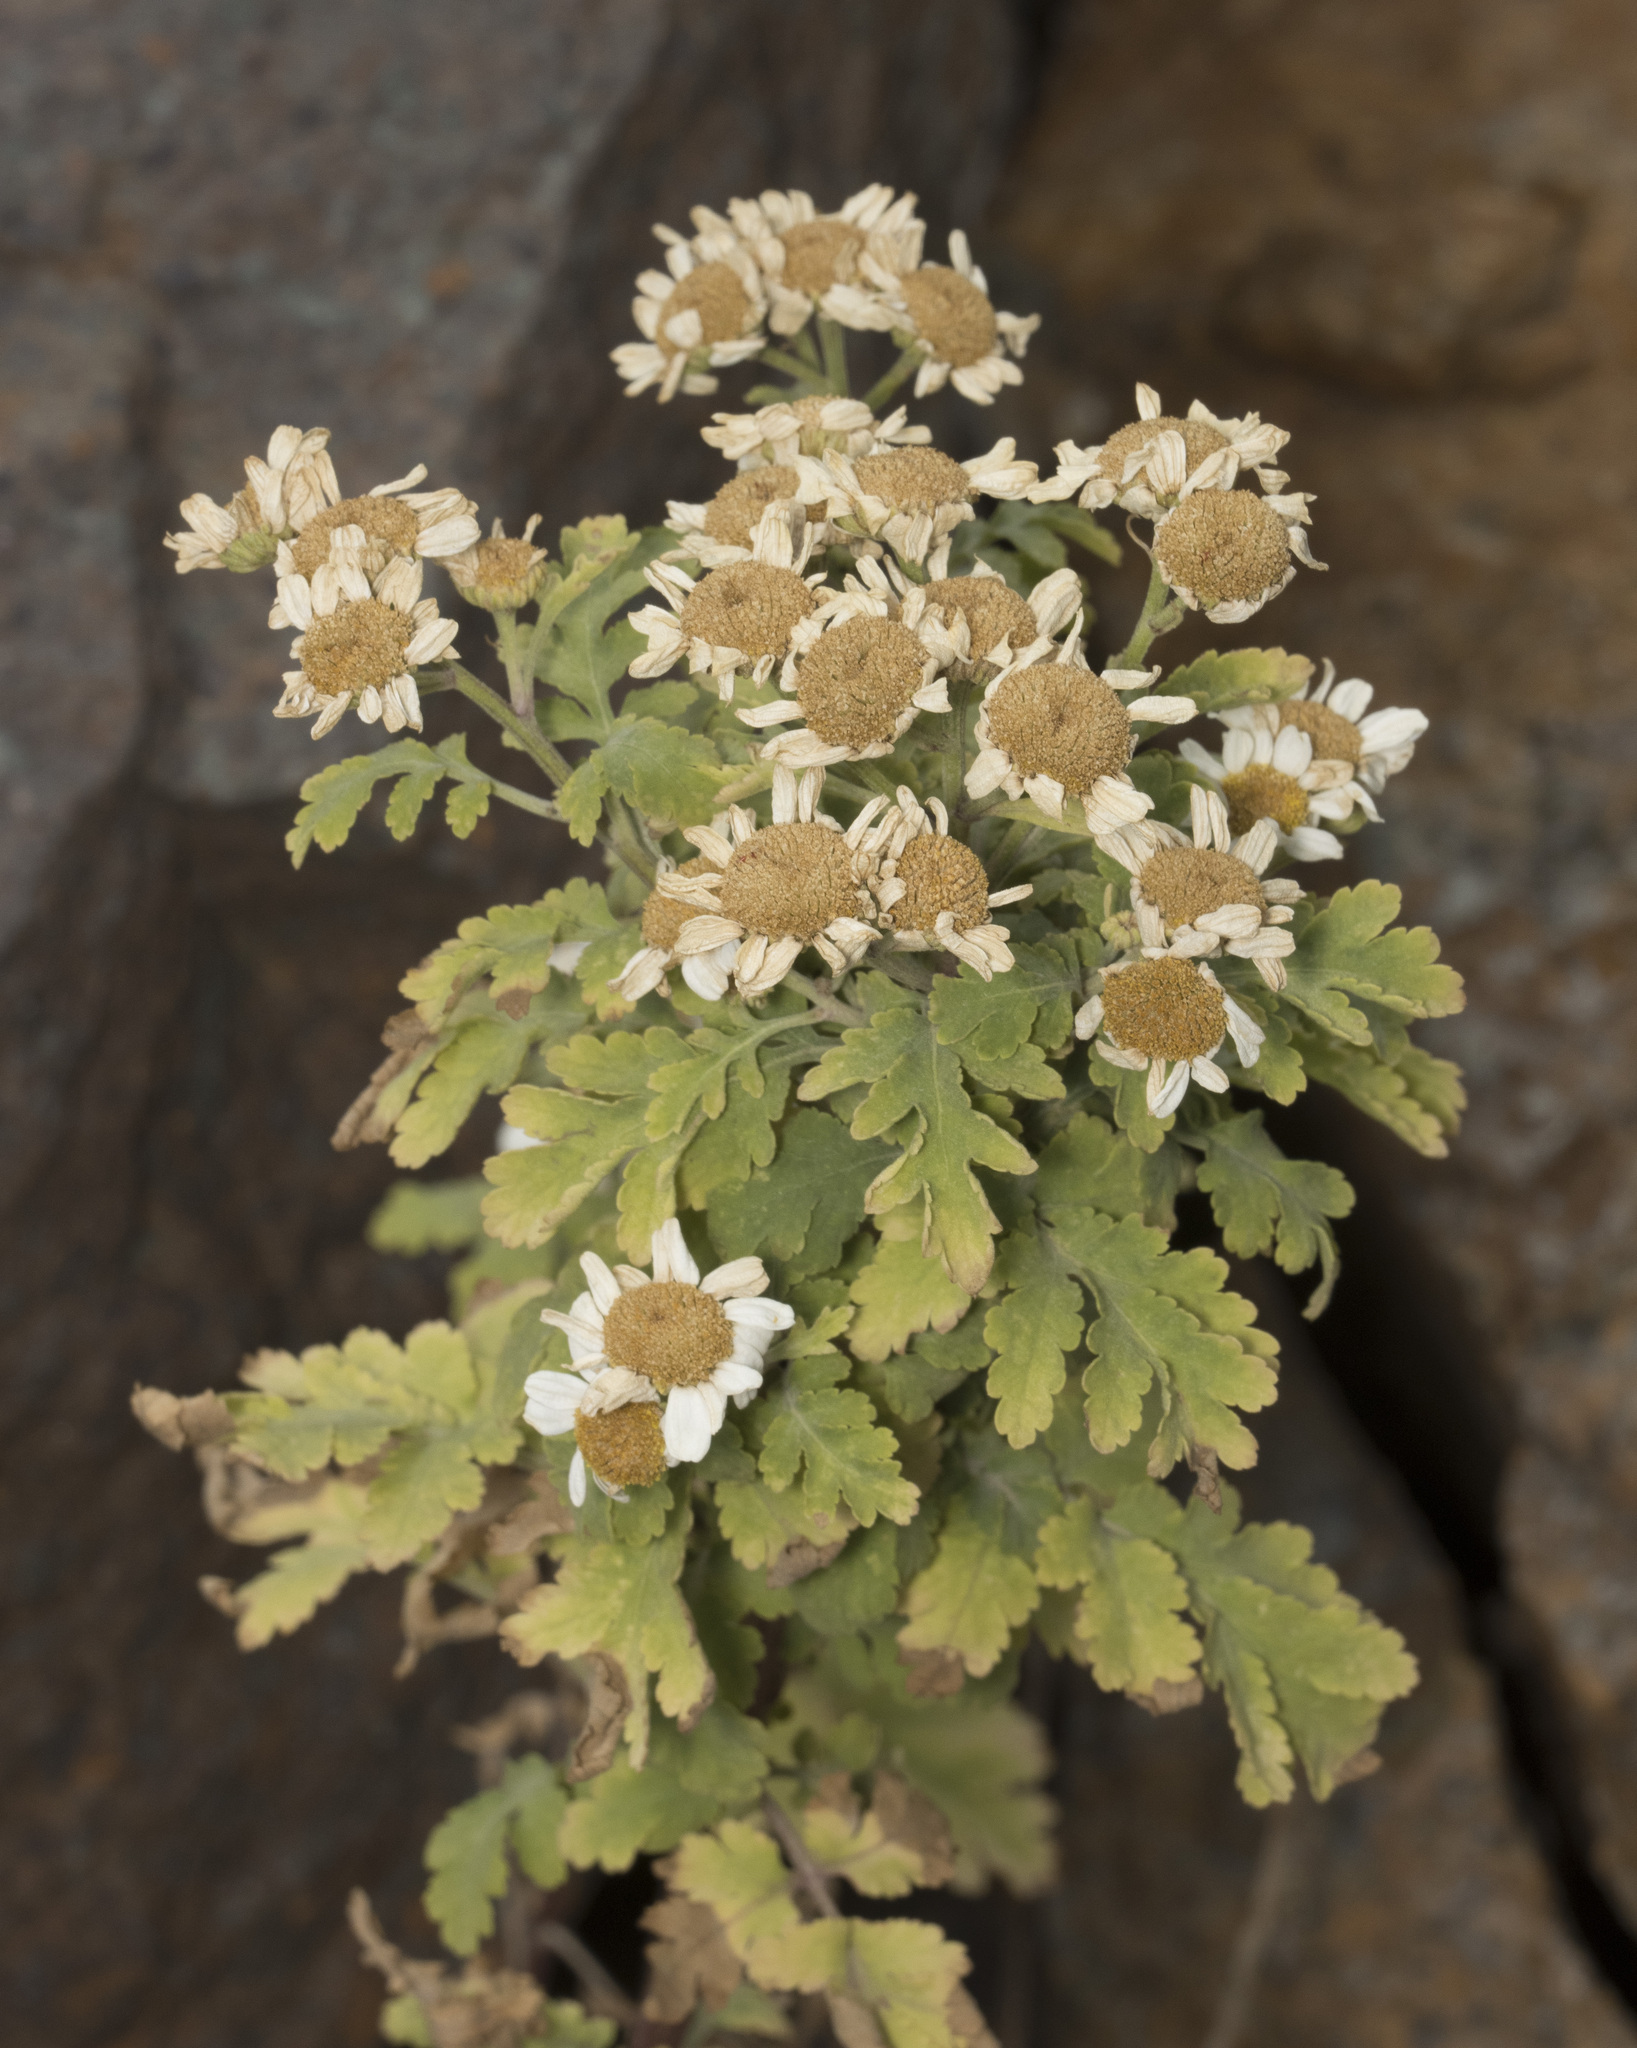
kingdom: Plantae
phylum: Tracheophyta
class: Magnoliopsida
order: Asterales
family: Asteraceae
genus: Tanacetum
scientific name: Tanacetum parthenium
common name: Feverfew
